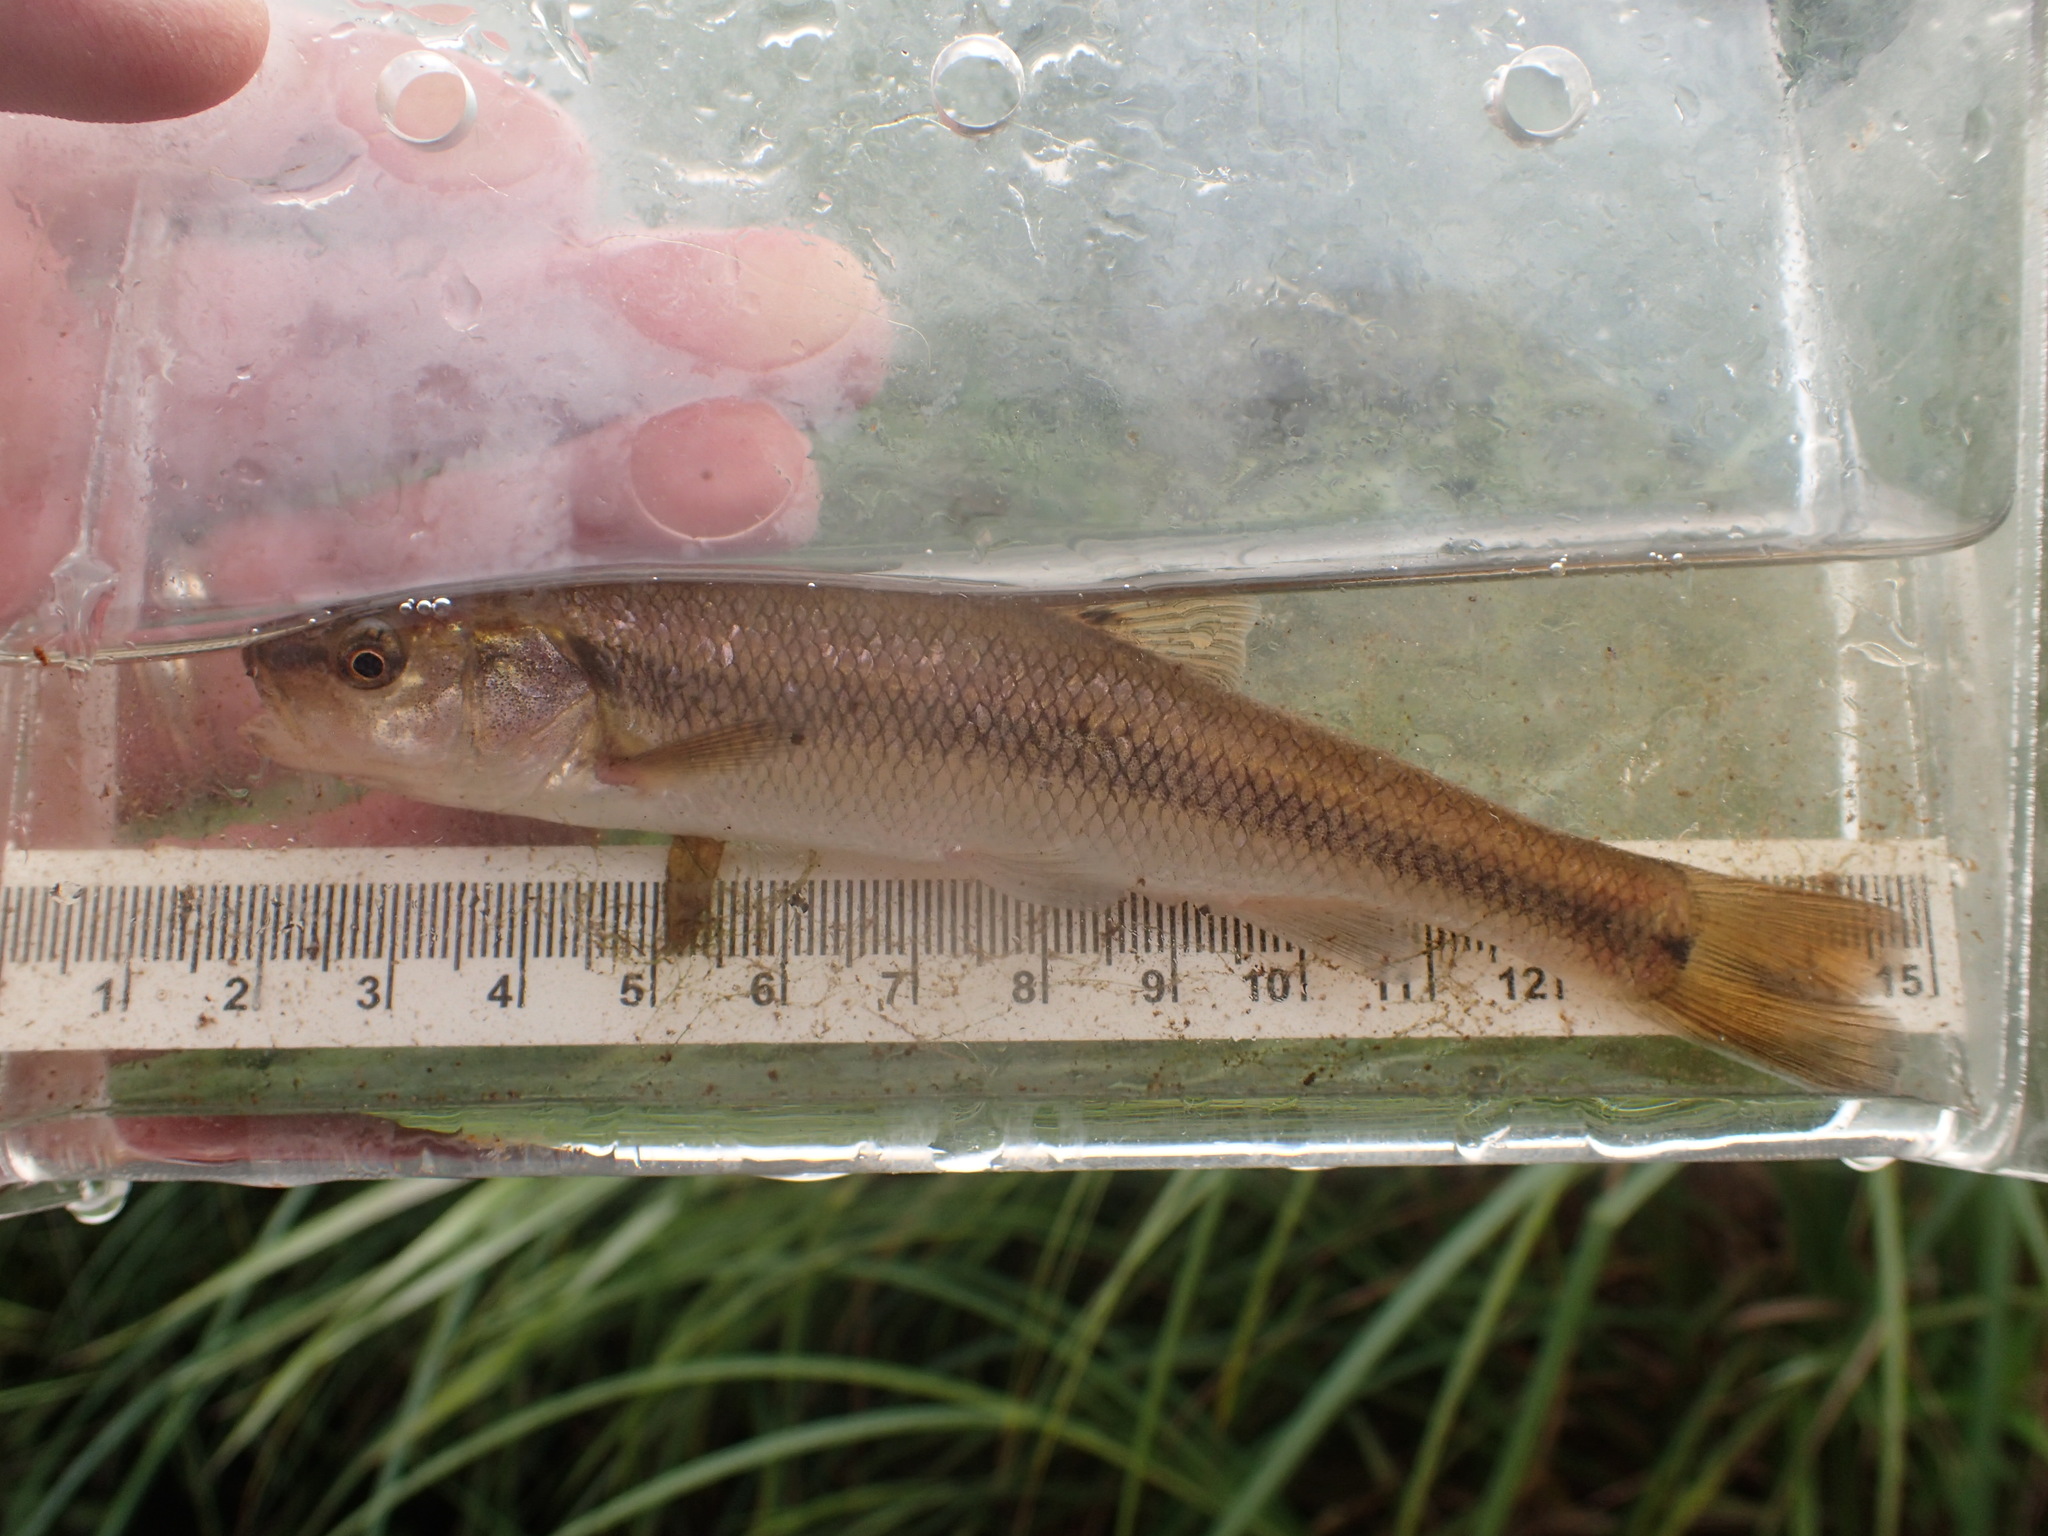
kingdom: Animalia
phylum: Chordata
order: Cypriniformes
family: Cyprinidae
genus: Semotilus
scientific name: Semotilus atromaculatus
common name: Creek chub
